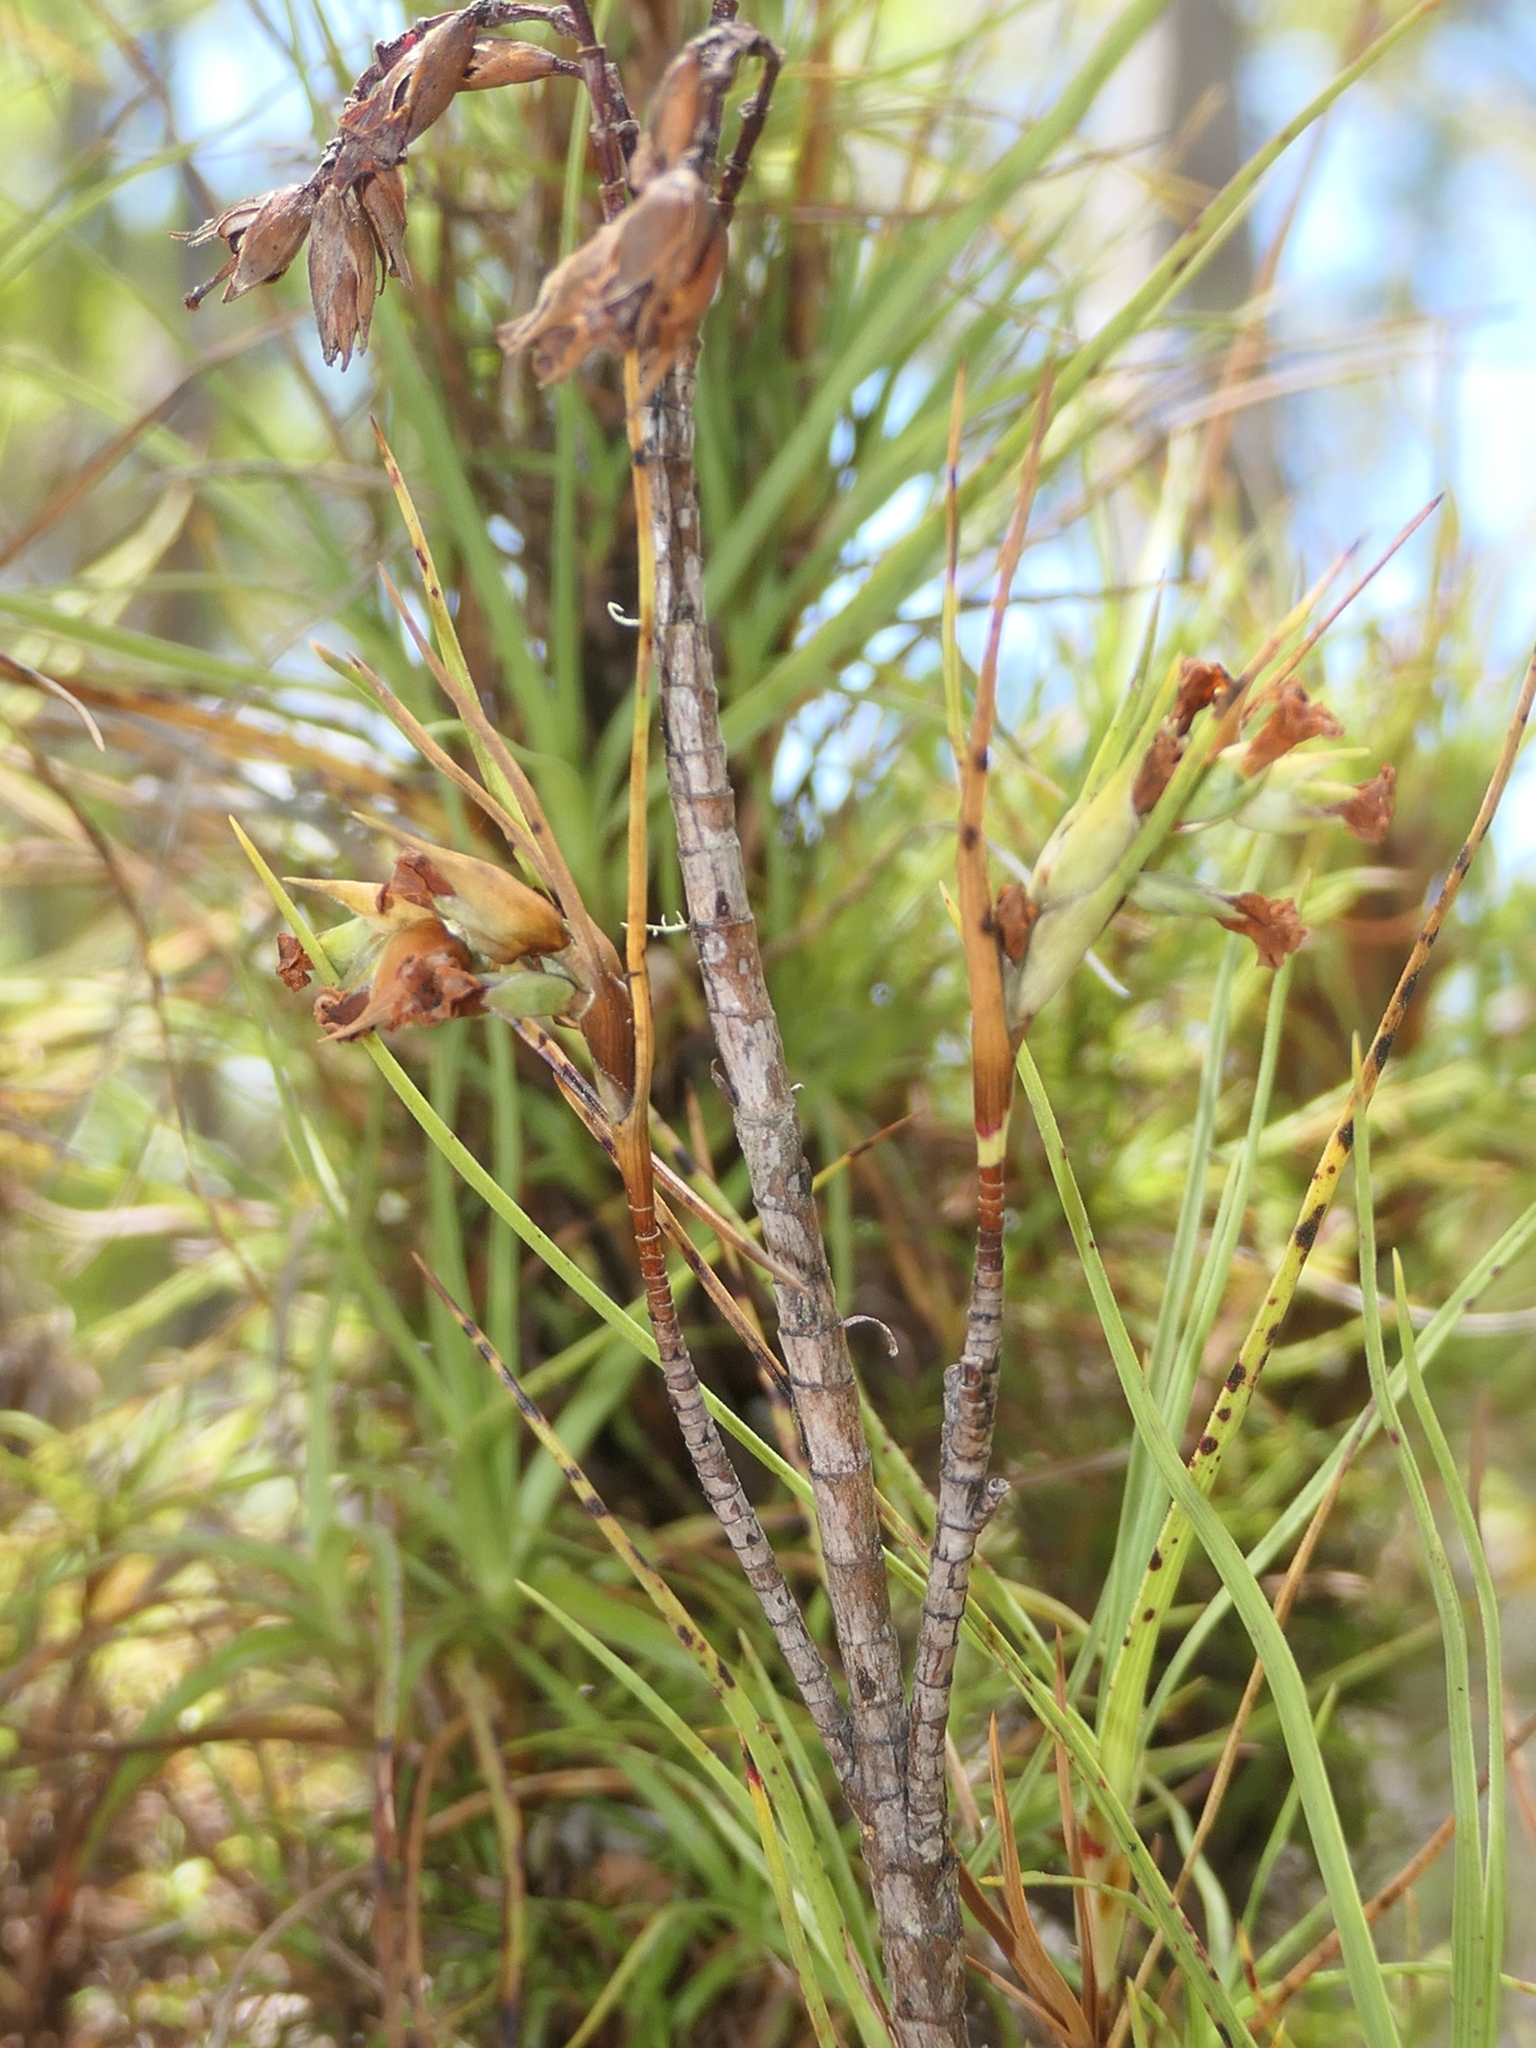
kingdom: Plantae
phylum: Tracheophyta
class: Magnoliopsida
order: Ericales
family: Ericaceae
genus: Dracophyllum
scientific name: Dracophyllum longifolium
